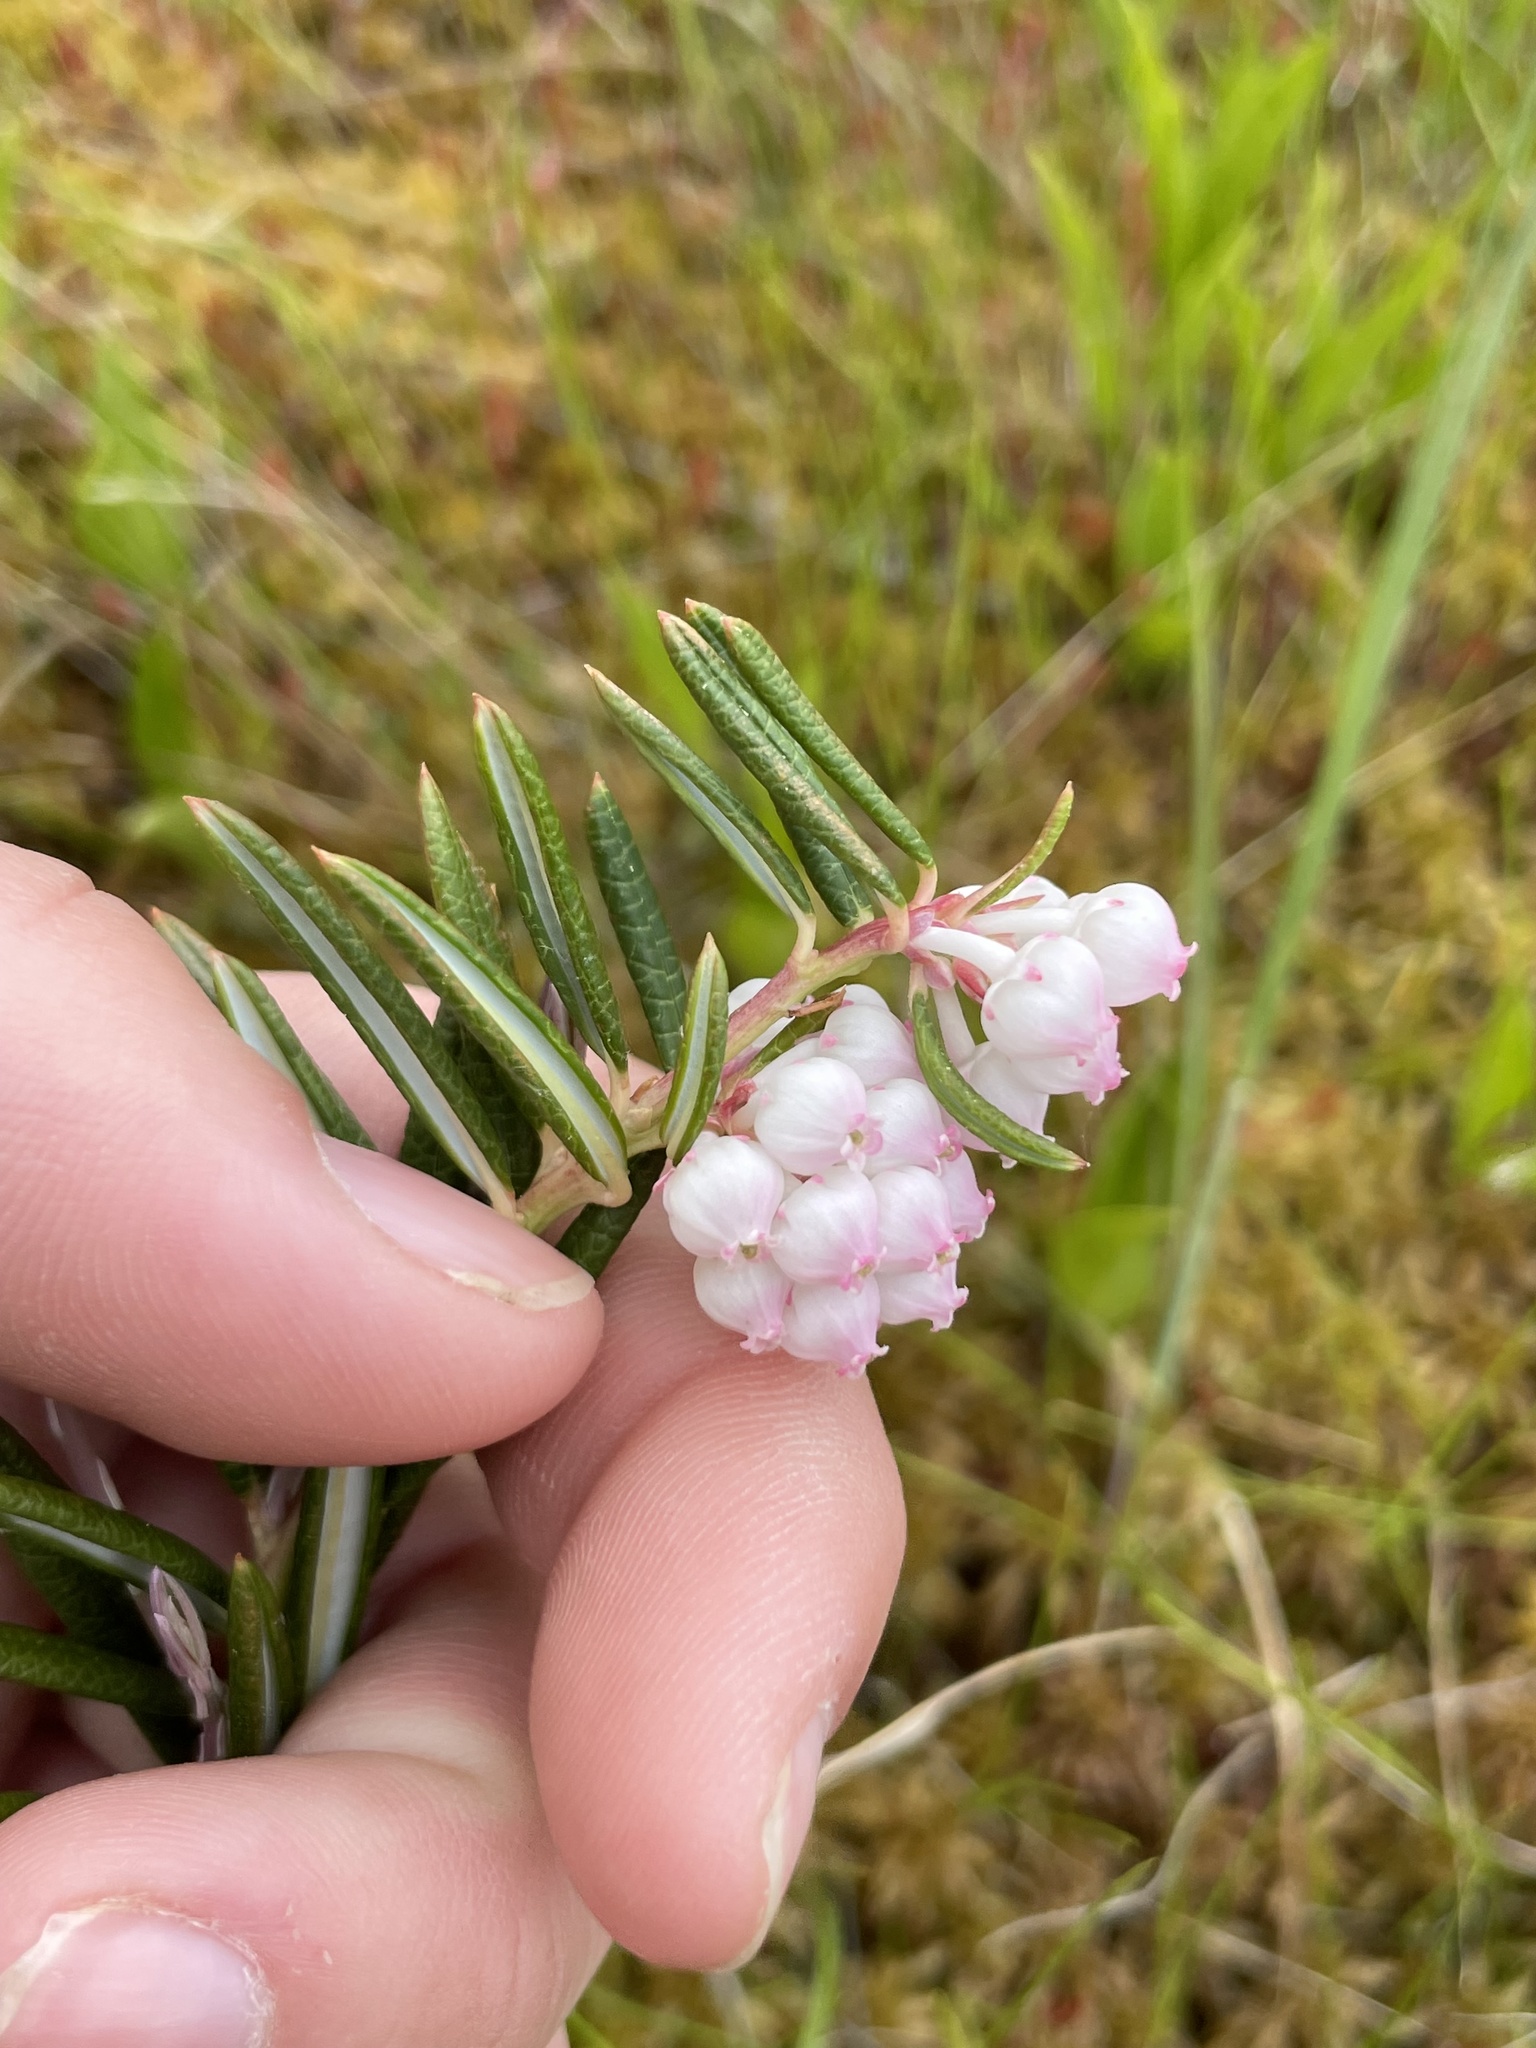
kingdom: Plantae
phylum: Tracheophyta
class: Magnoliopsida
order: Ericales
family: Ericaceae
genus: Andromeda
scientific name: Andromeda polifolia
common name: Bog-rosemary
